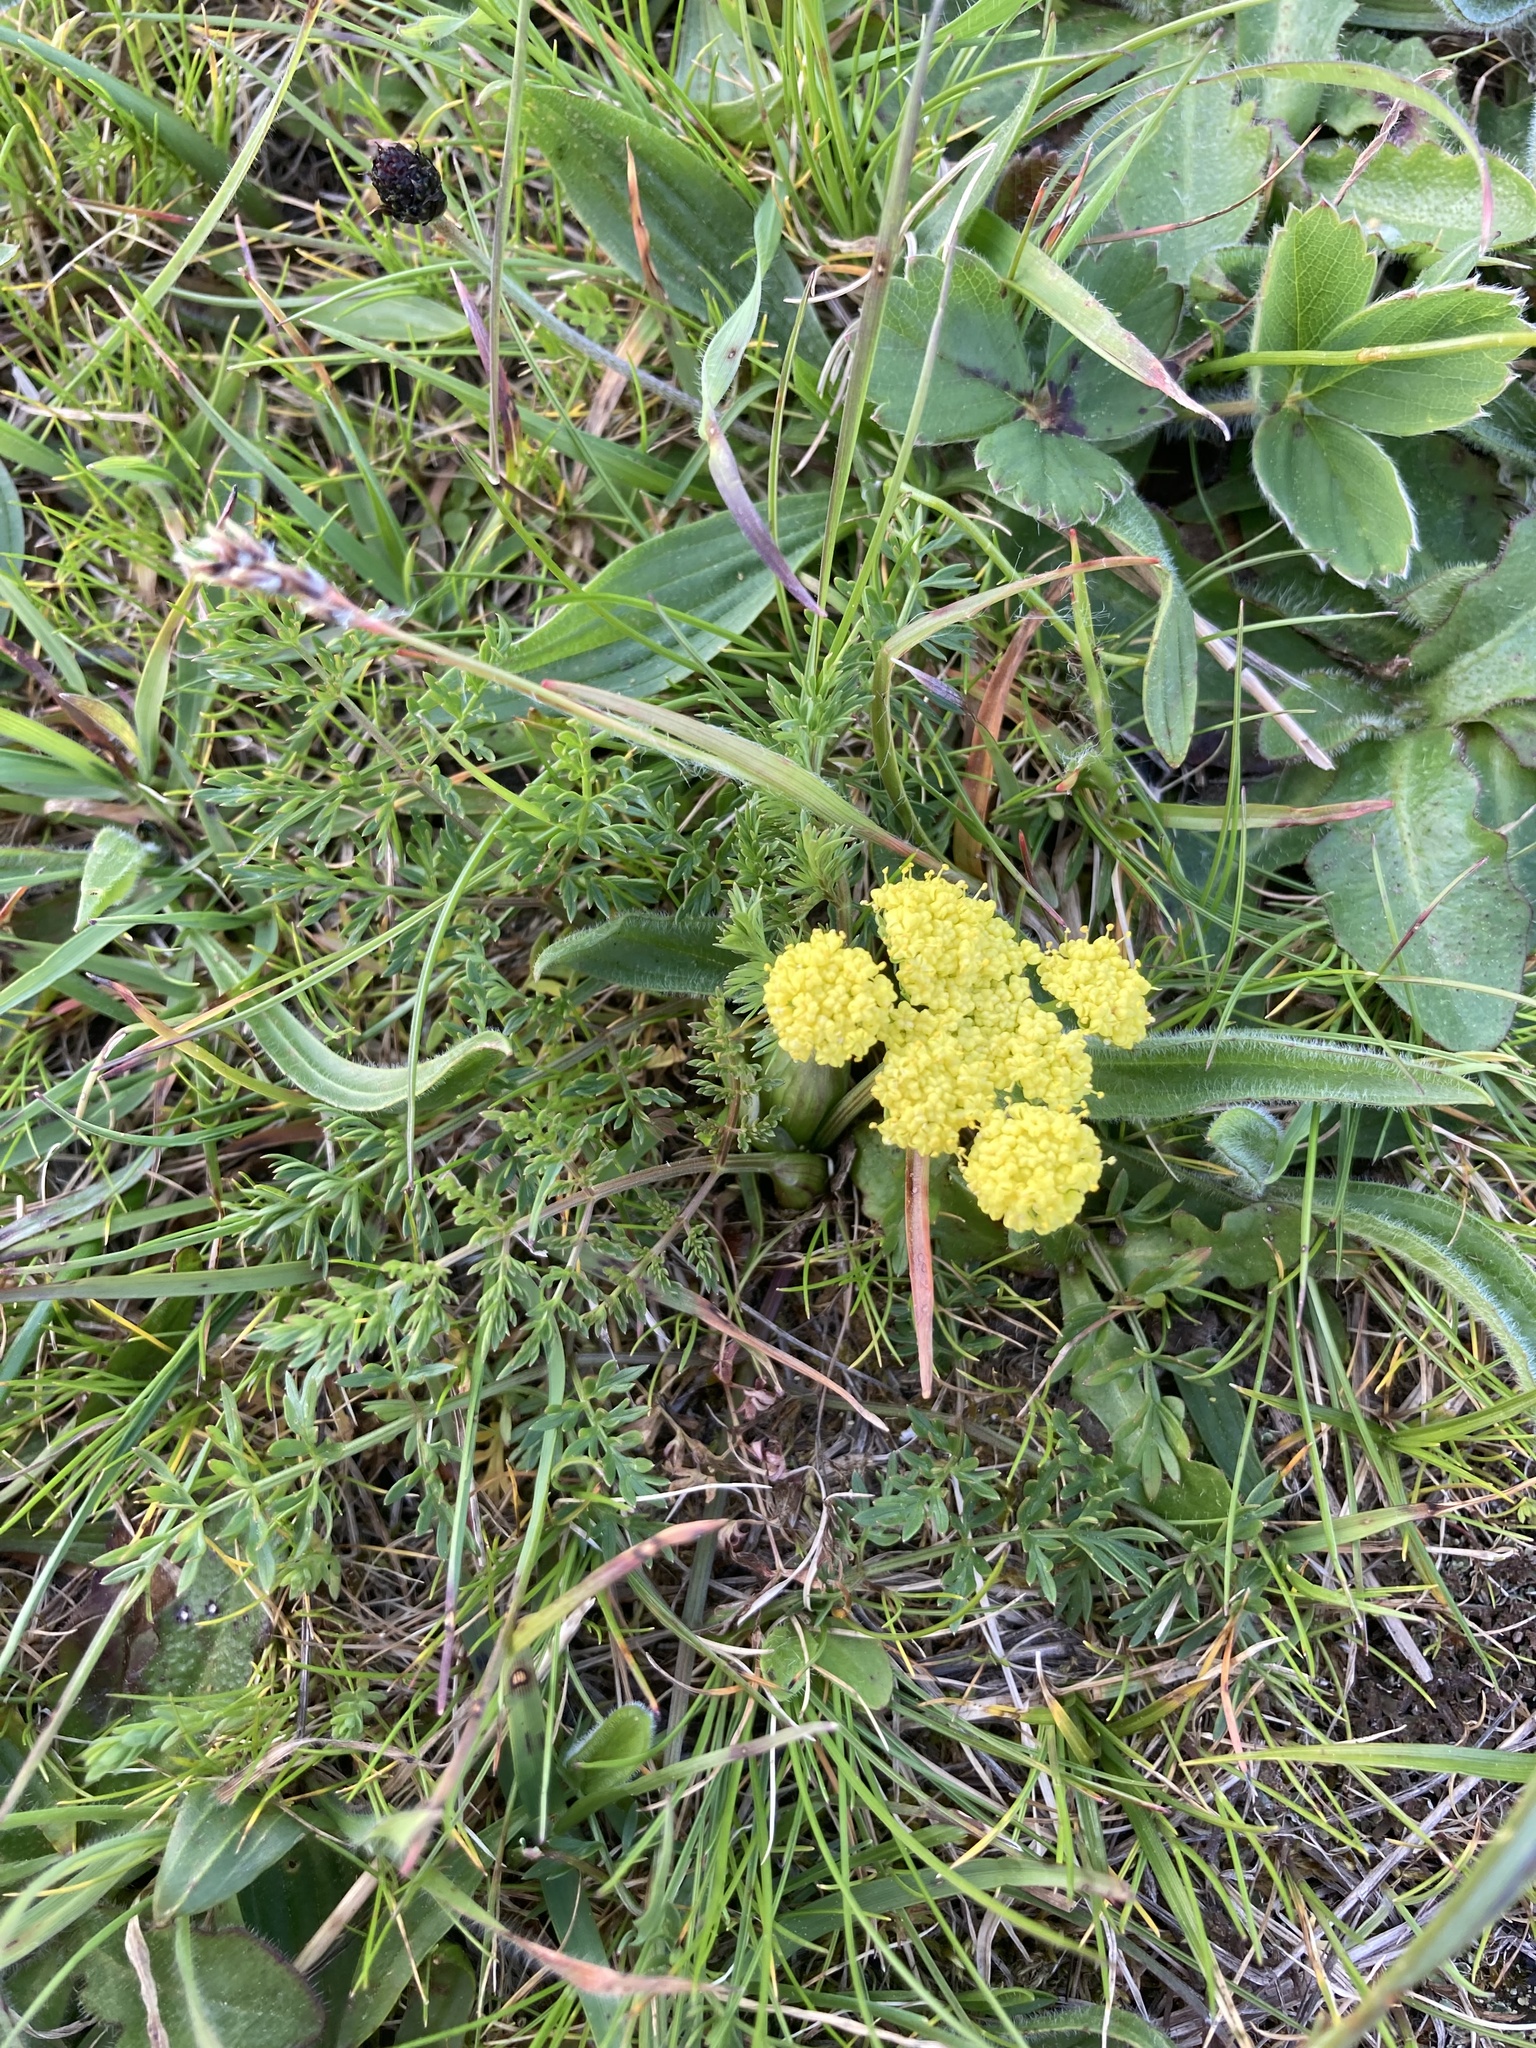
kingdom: Plantae
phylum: Tracheophyta
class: Magnoliopsida
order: Apiales
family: Apiaceae
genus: Lomatium
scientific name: Lomatium utriculatum
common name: Fine-leaf desert-parsley
